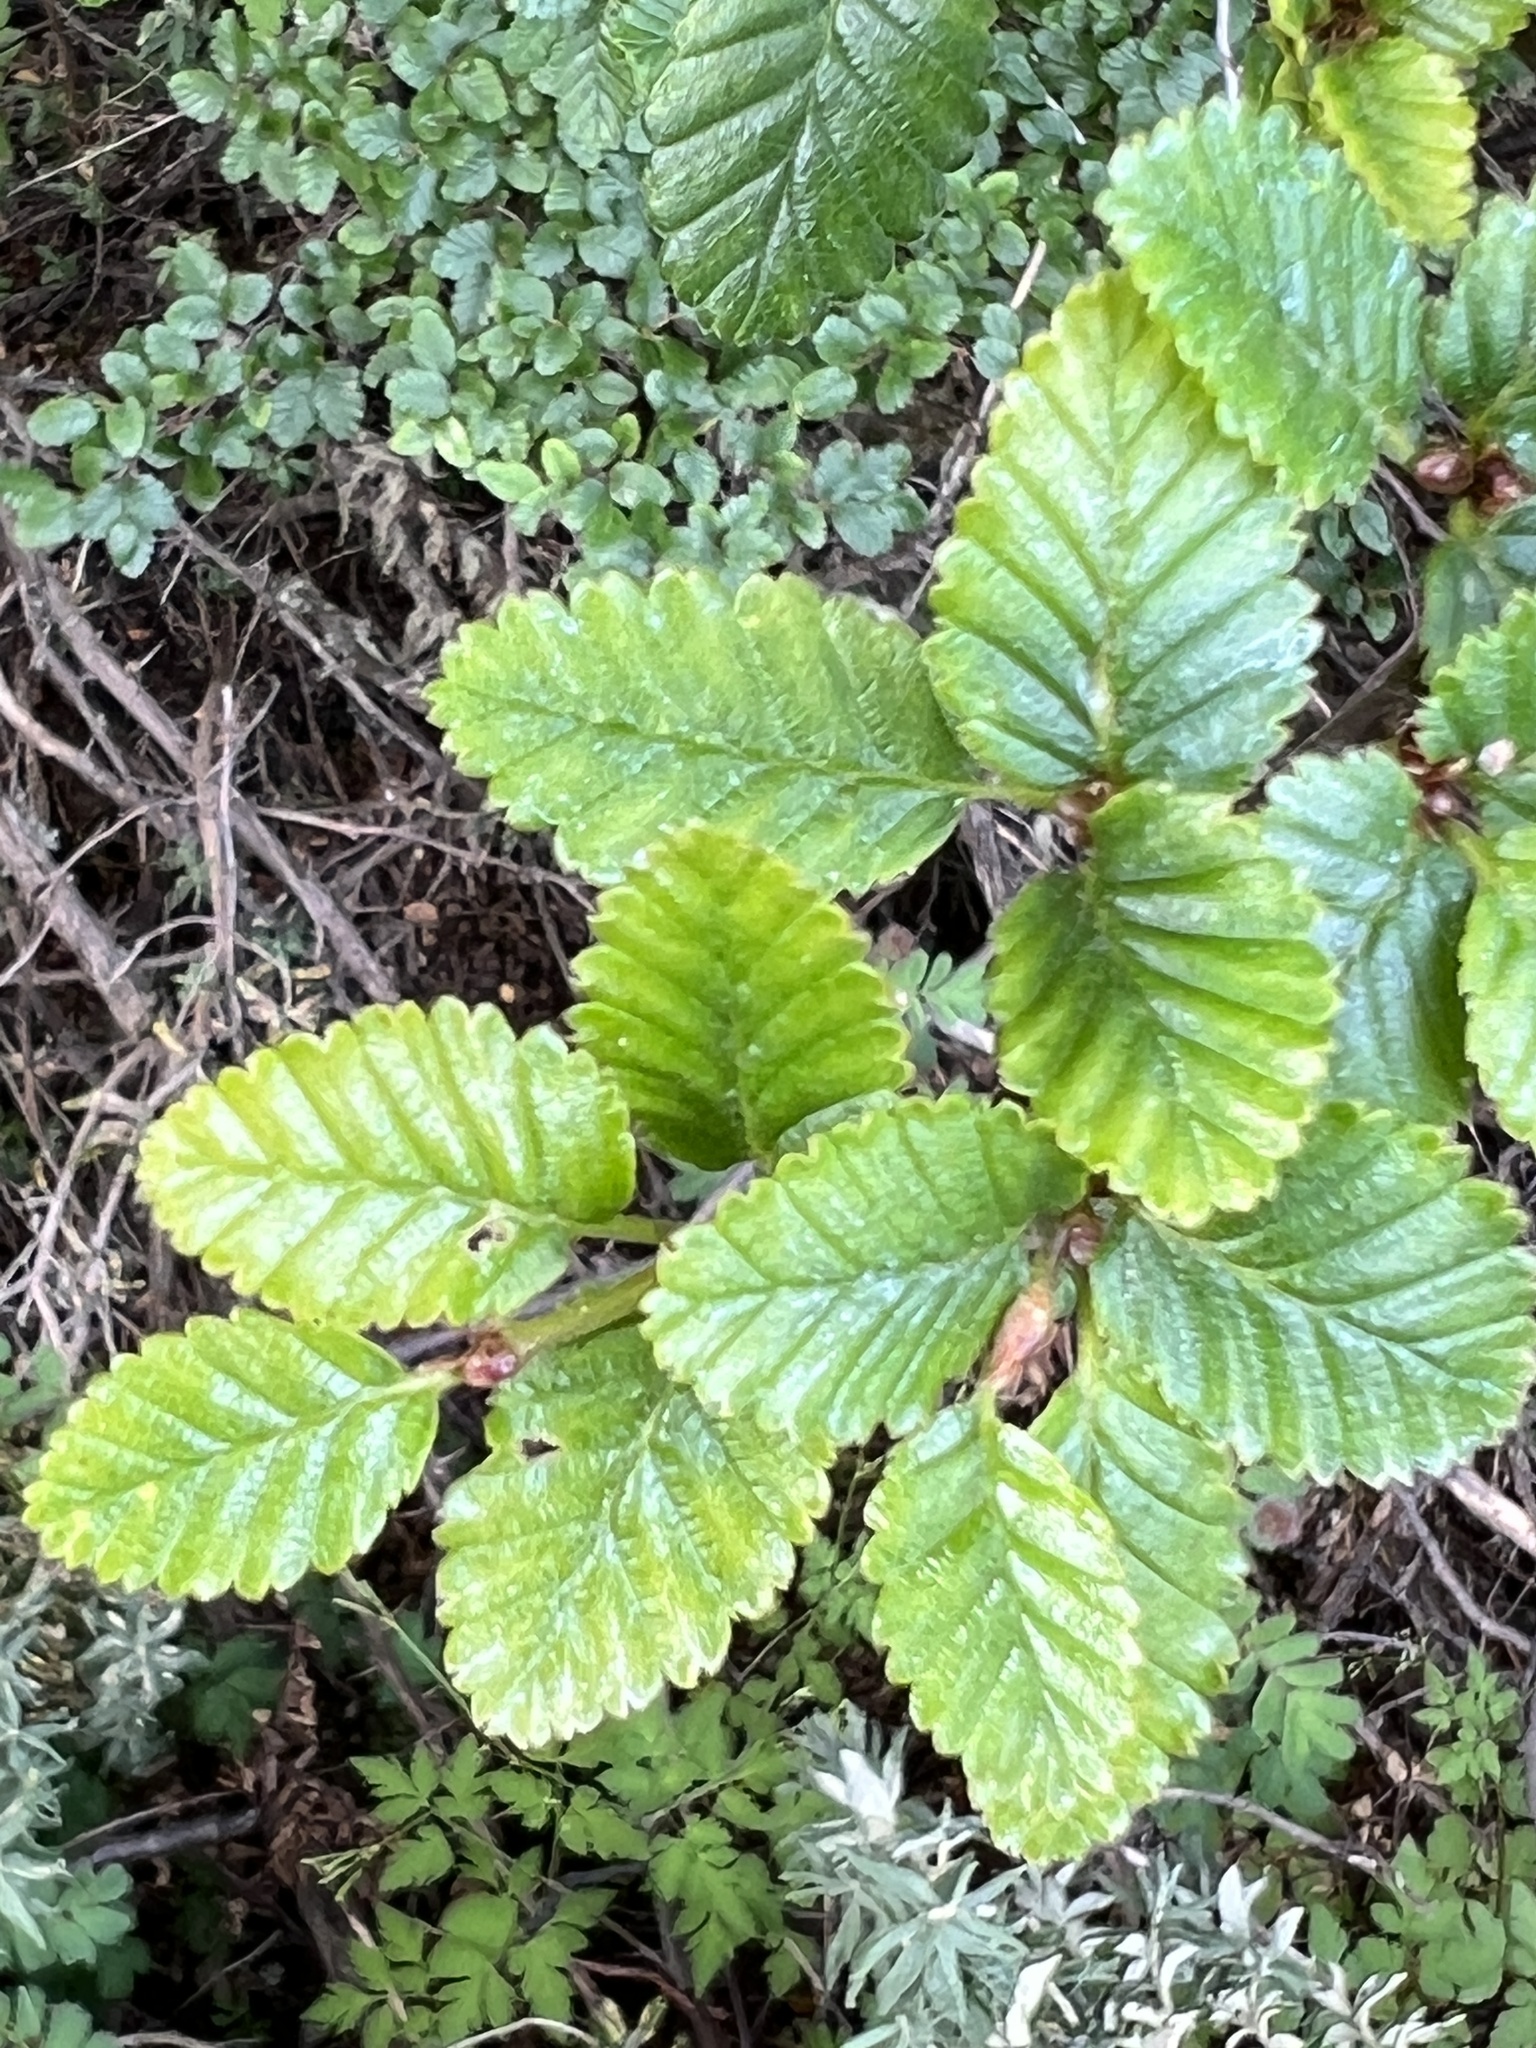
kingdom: Plantae
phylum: Tracheophyta
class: Magnoliopsida
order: Fagales
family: Nothofagaceae
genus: Nothofagus
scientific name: Nothofagus pumilio
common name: Lenga beech
